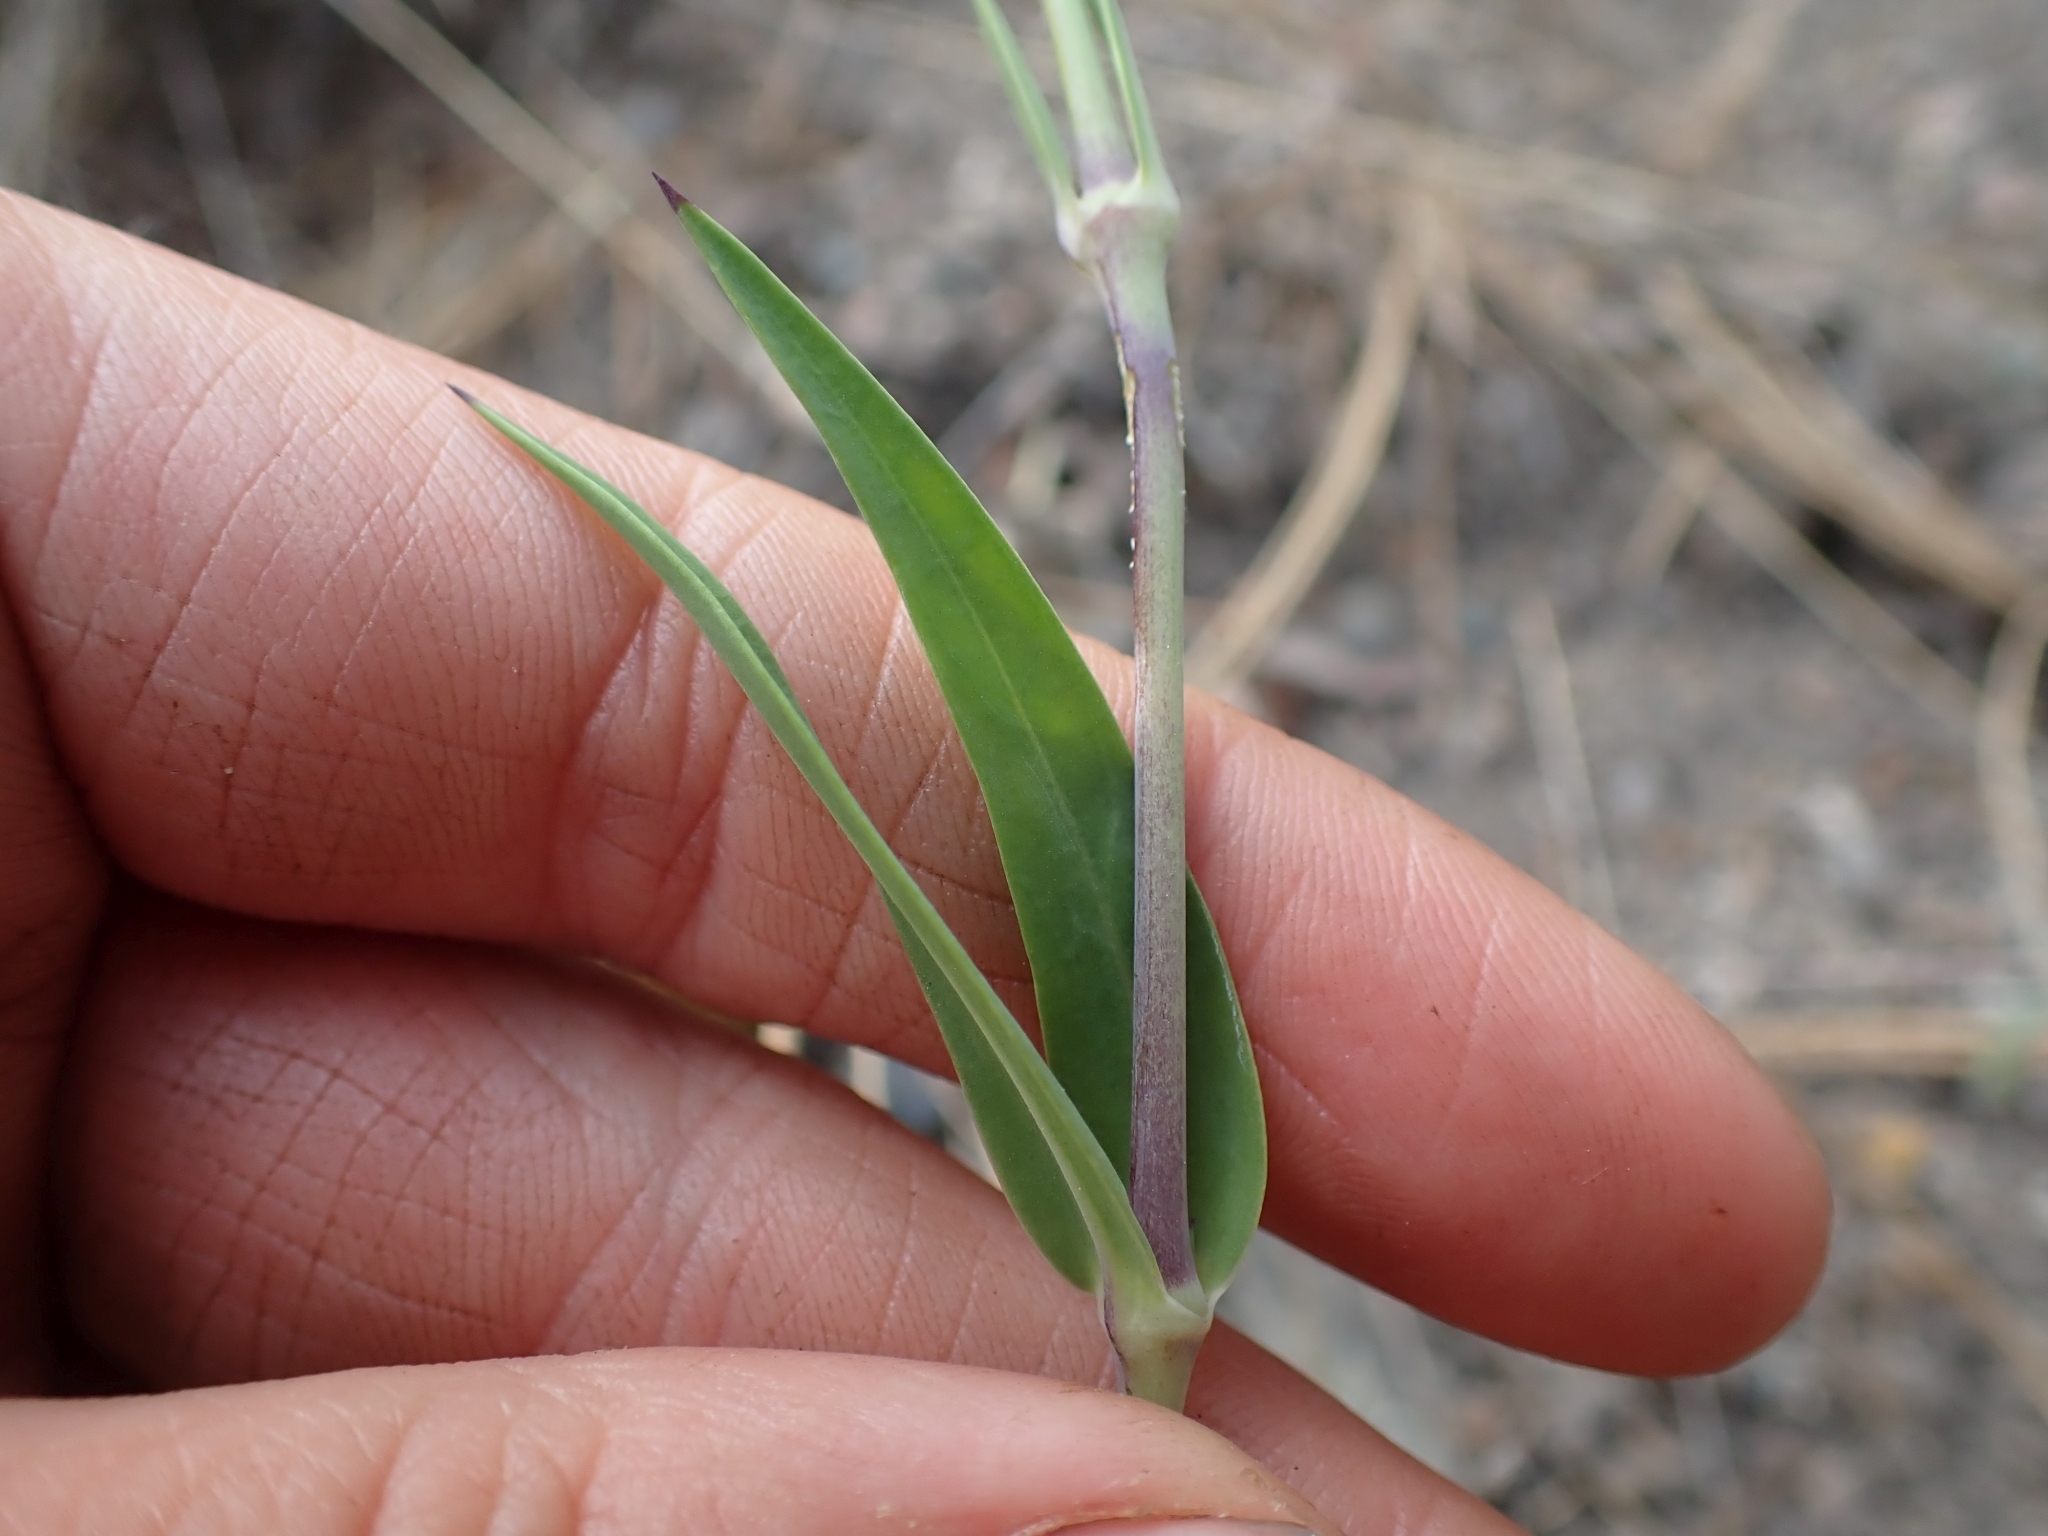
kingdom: Plantae
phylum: Tracheophyta
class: Magnoliopsida
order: Caryophyllales
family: Caryophyllaceae
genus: Silene
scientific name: Silene vulgaris
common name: Bladder campion
